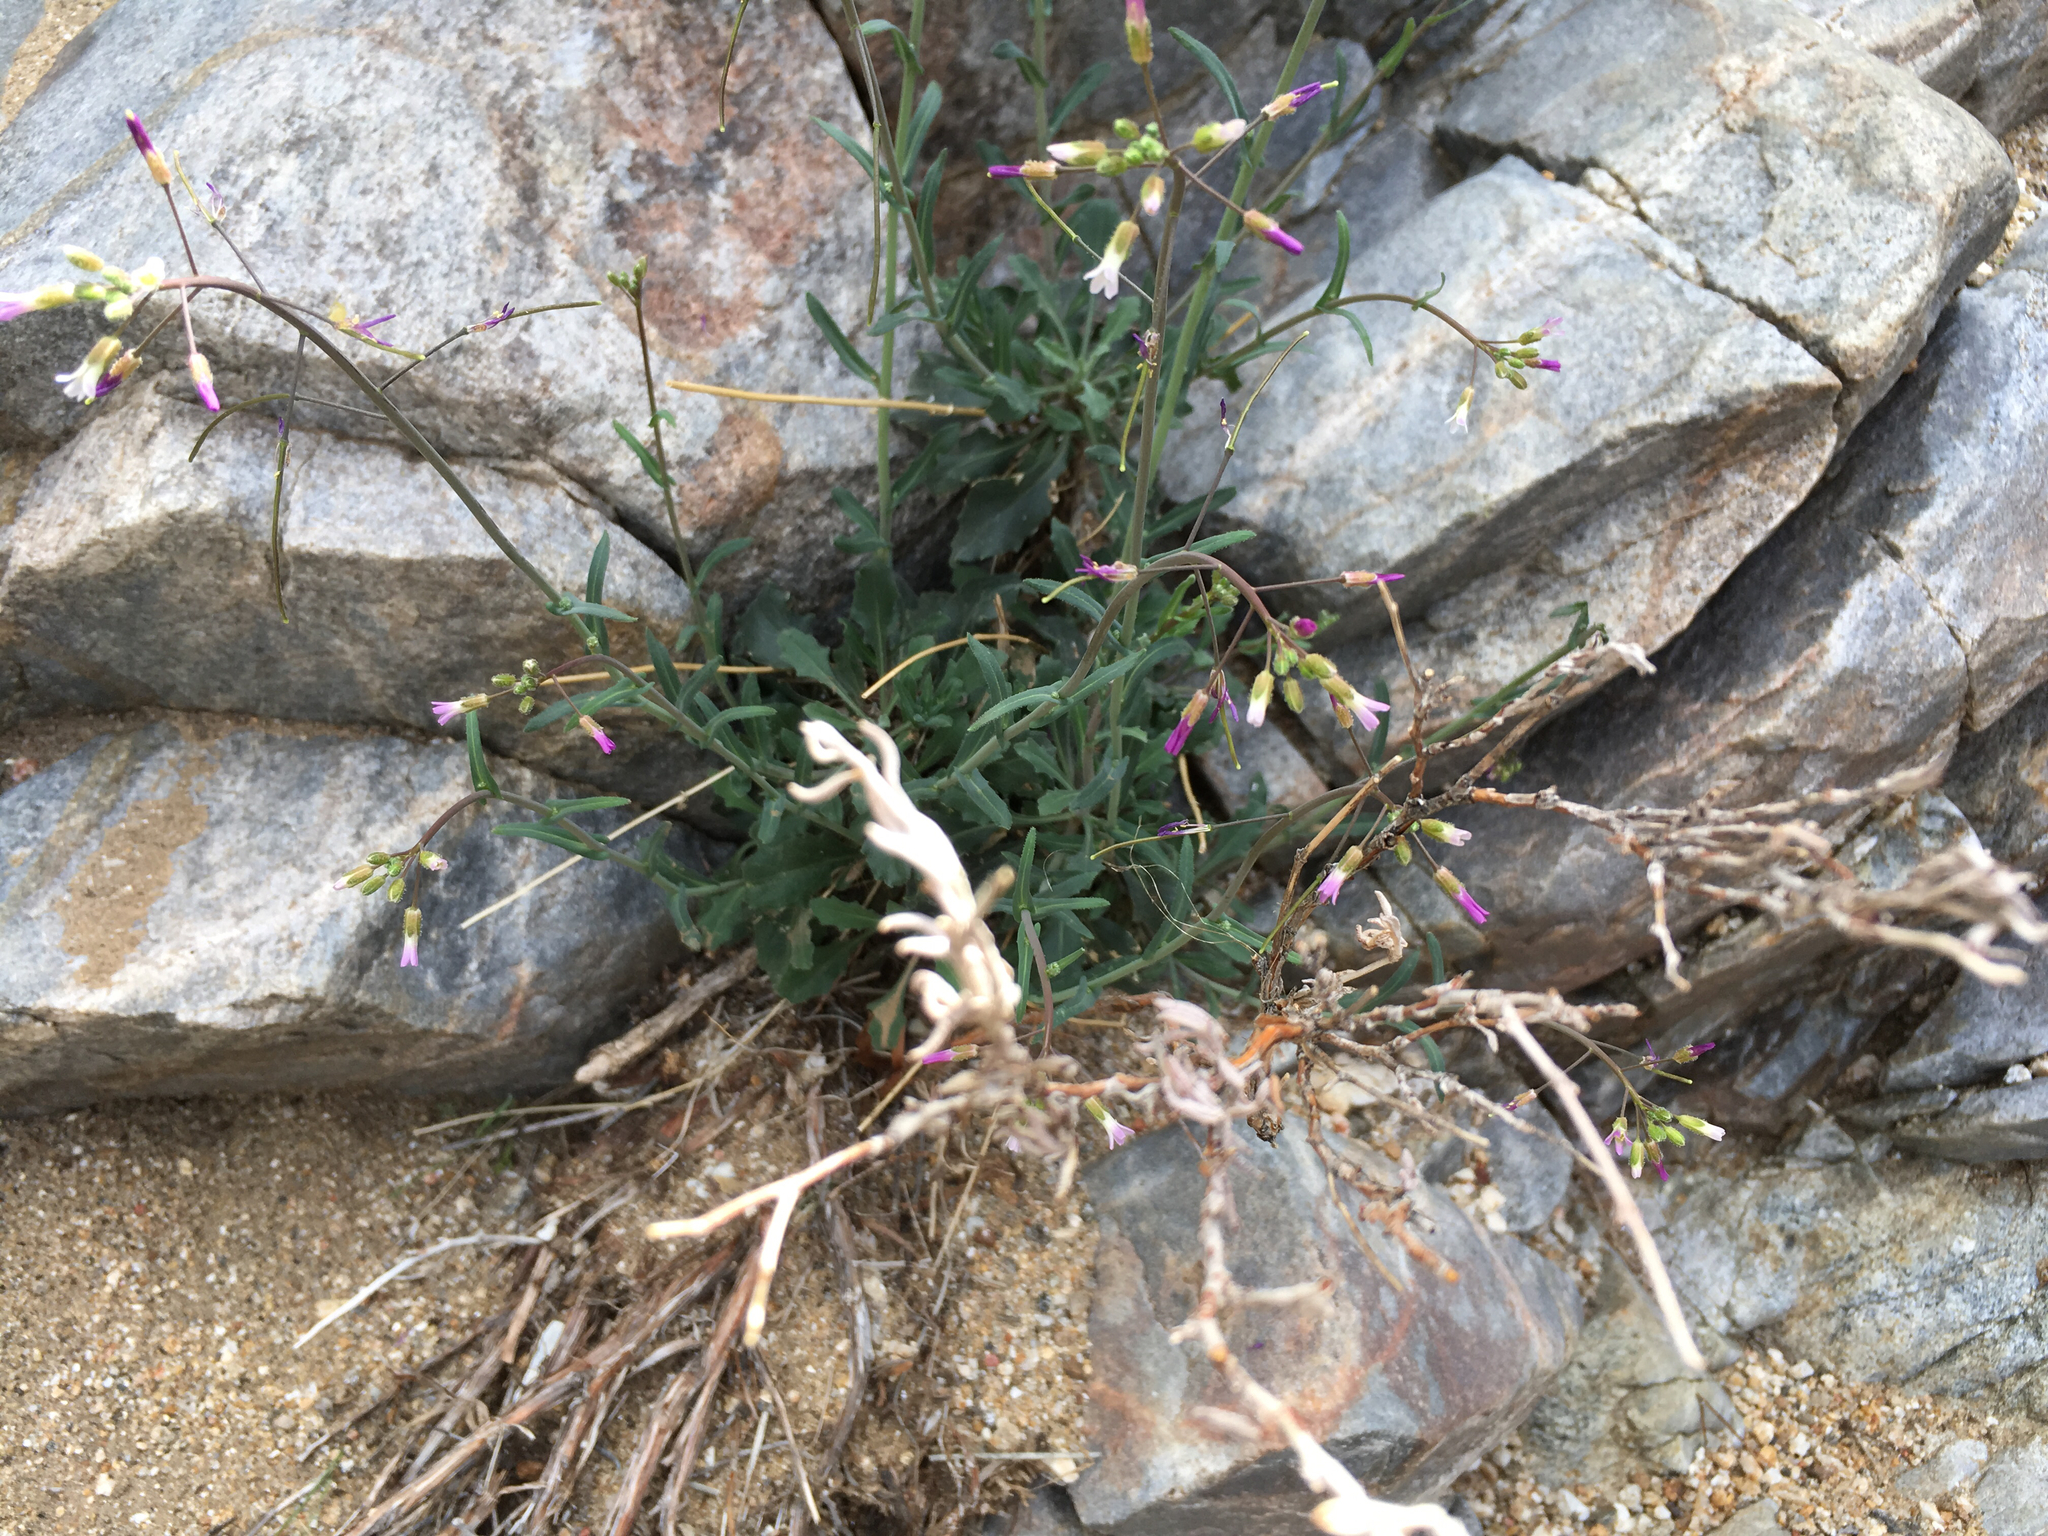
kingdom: Plantae
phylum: Tracheophyta
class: Magnoliopsida
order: Brassicales
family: Brassicaceae
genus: Boechera
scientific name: Boechera perennans
